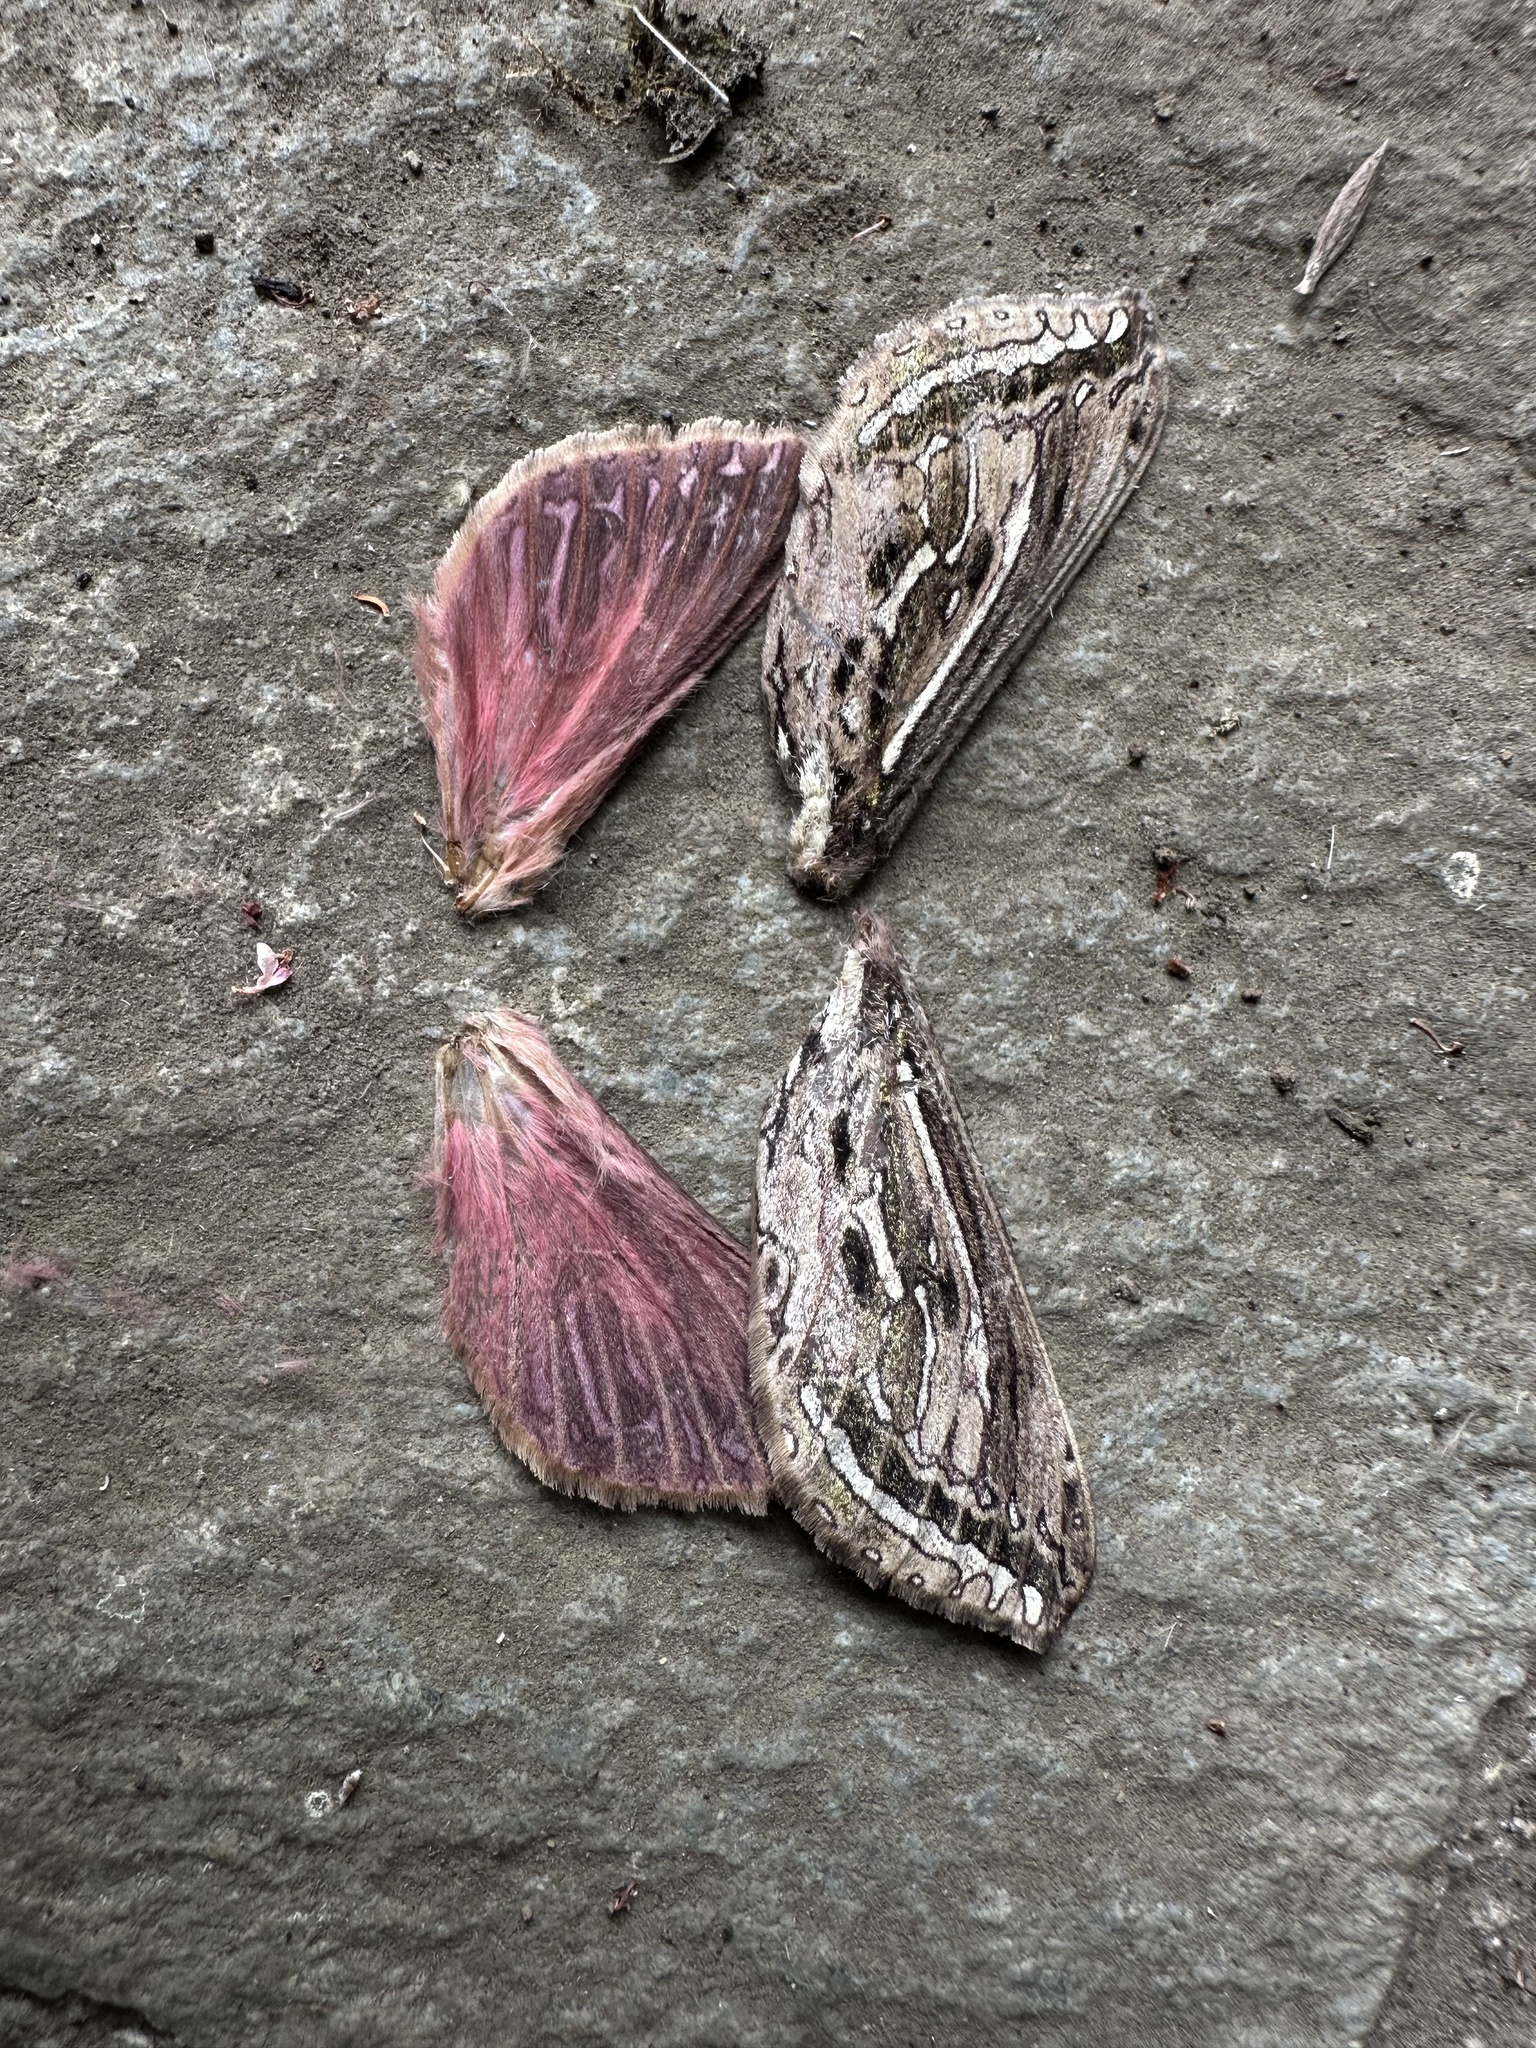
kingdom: Animalia
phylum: Arthropoda
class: Insecta
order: Lepidoptera
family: Hepialidae
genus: Callipielus
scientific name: Callipielus arenosus
